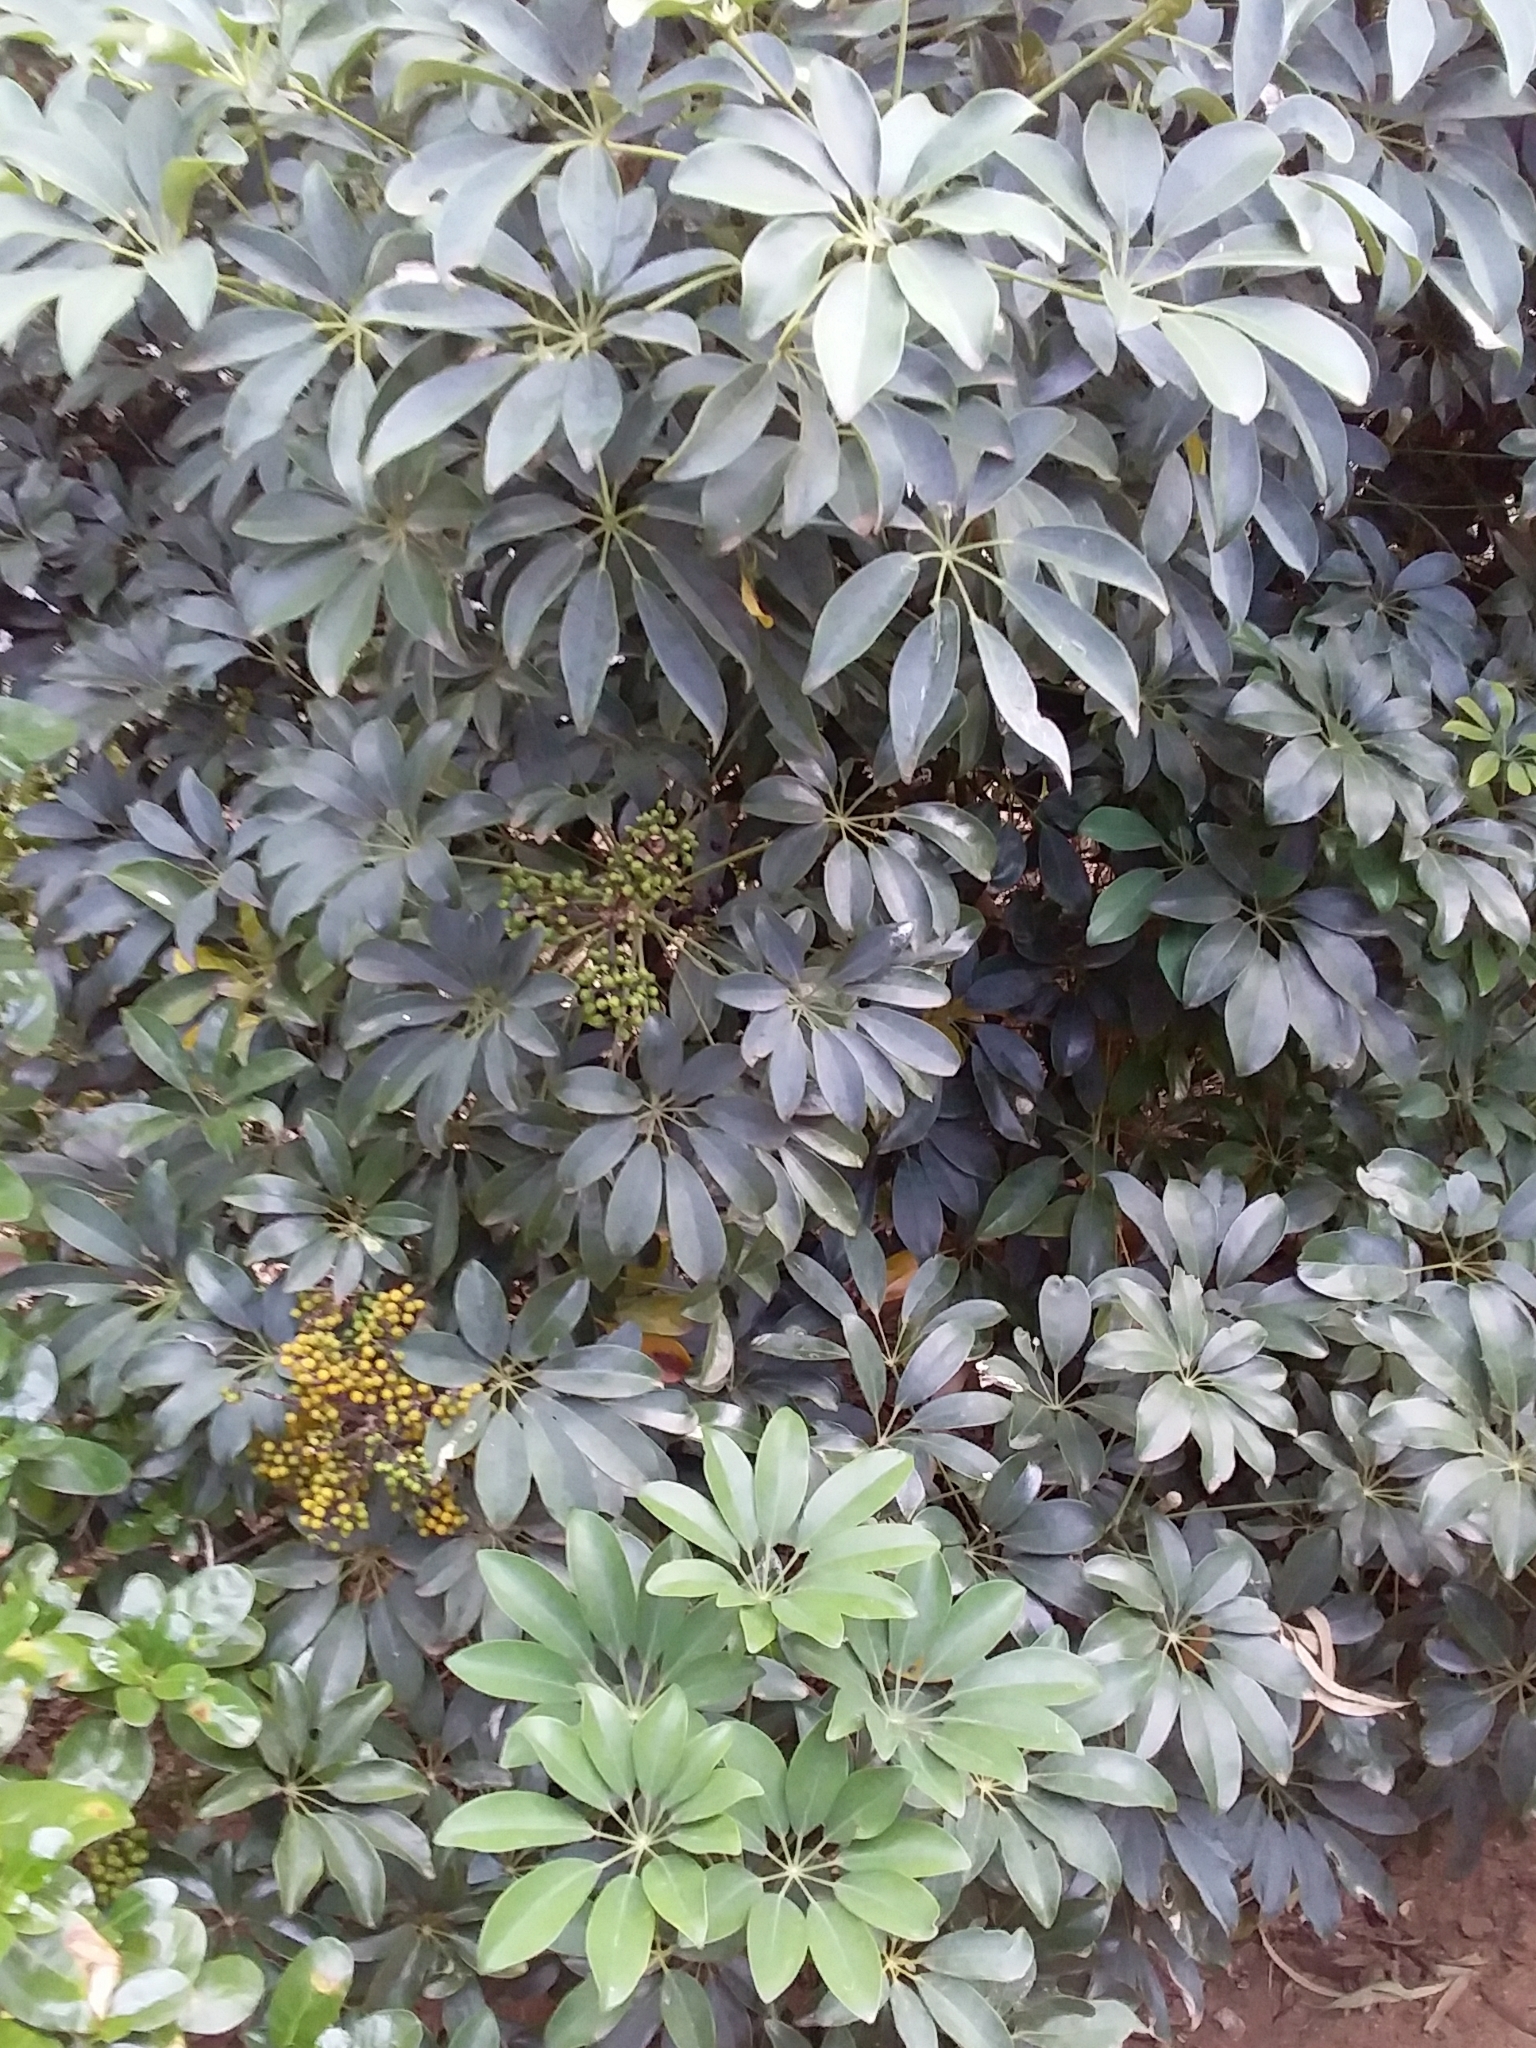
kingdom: Plantae
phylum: Tracheophyta
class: Magnoliopsida
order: Apiales
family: Araliaceae
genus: Heptapleurum
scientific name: Heptapleurum arboricola
